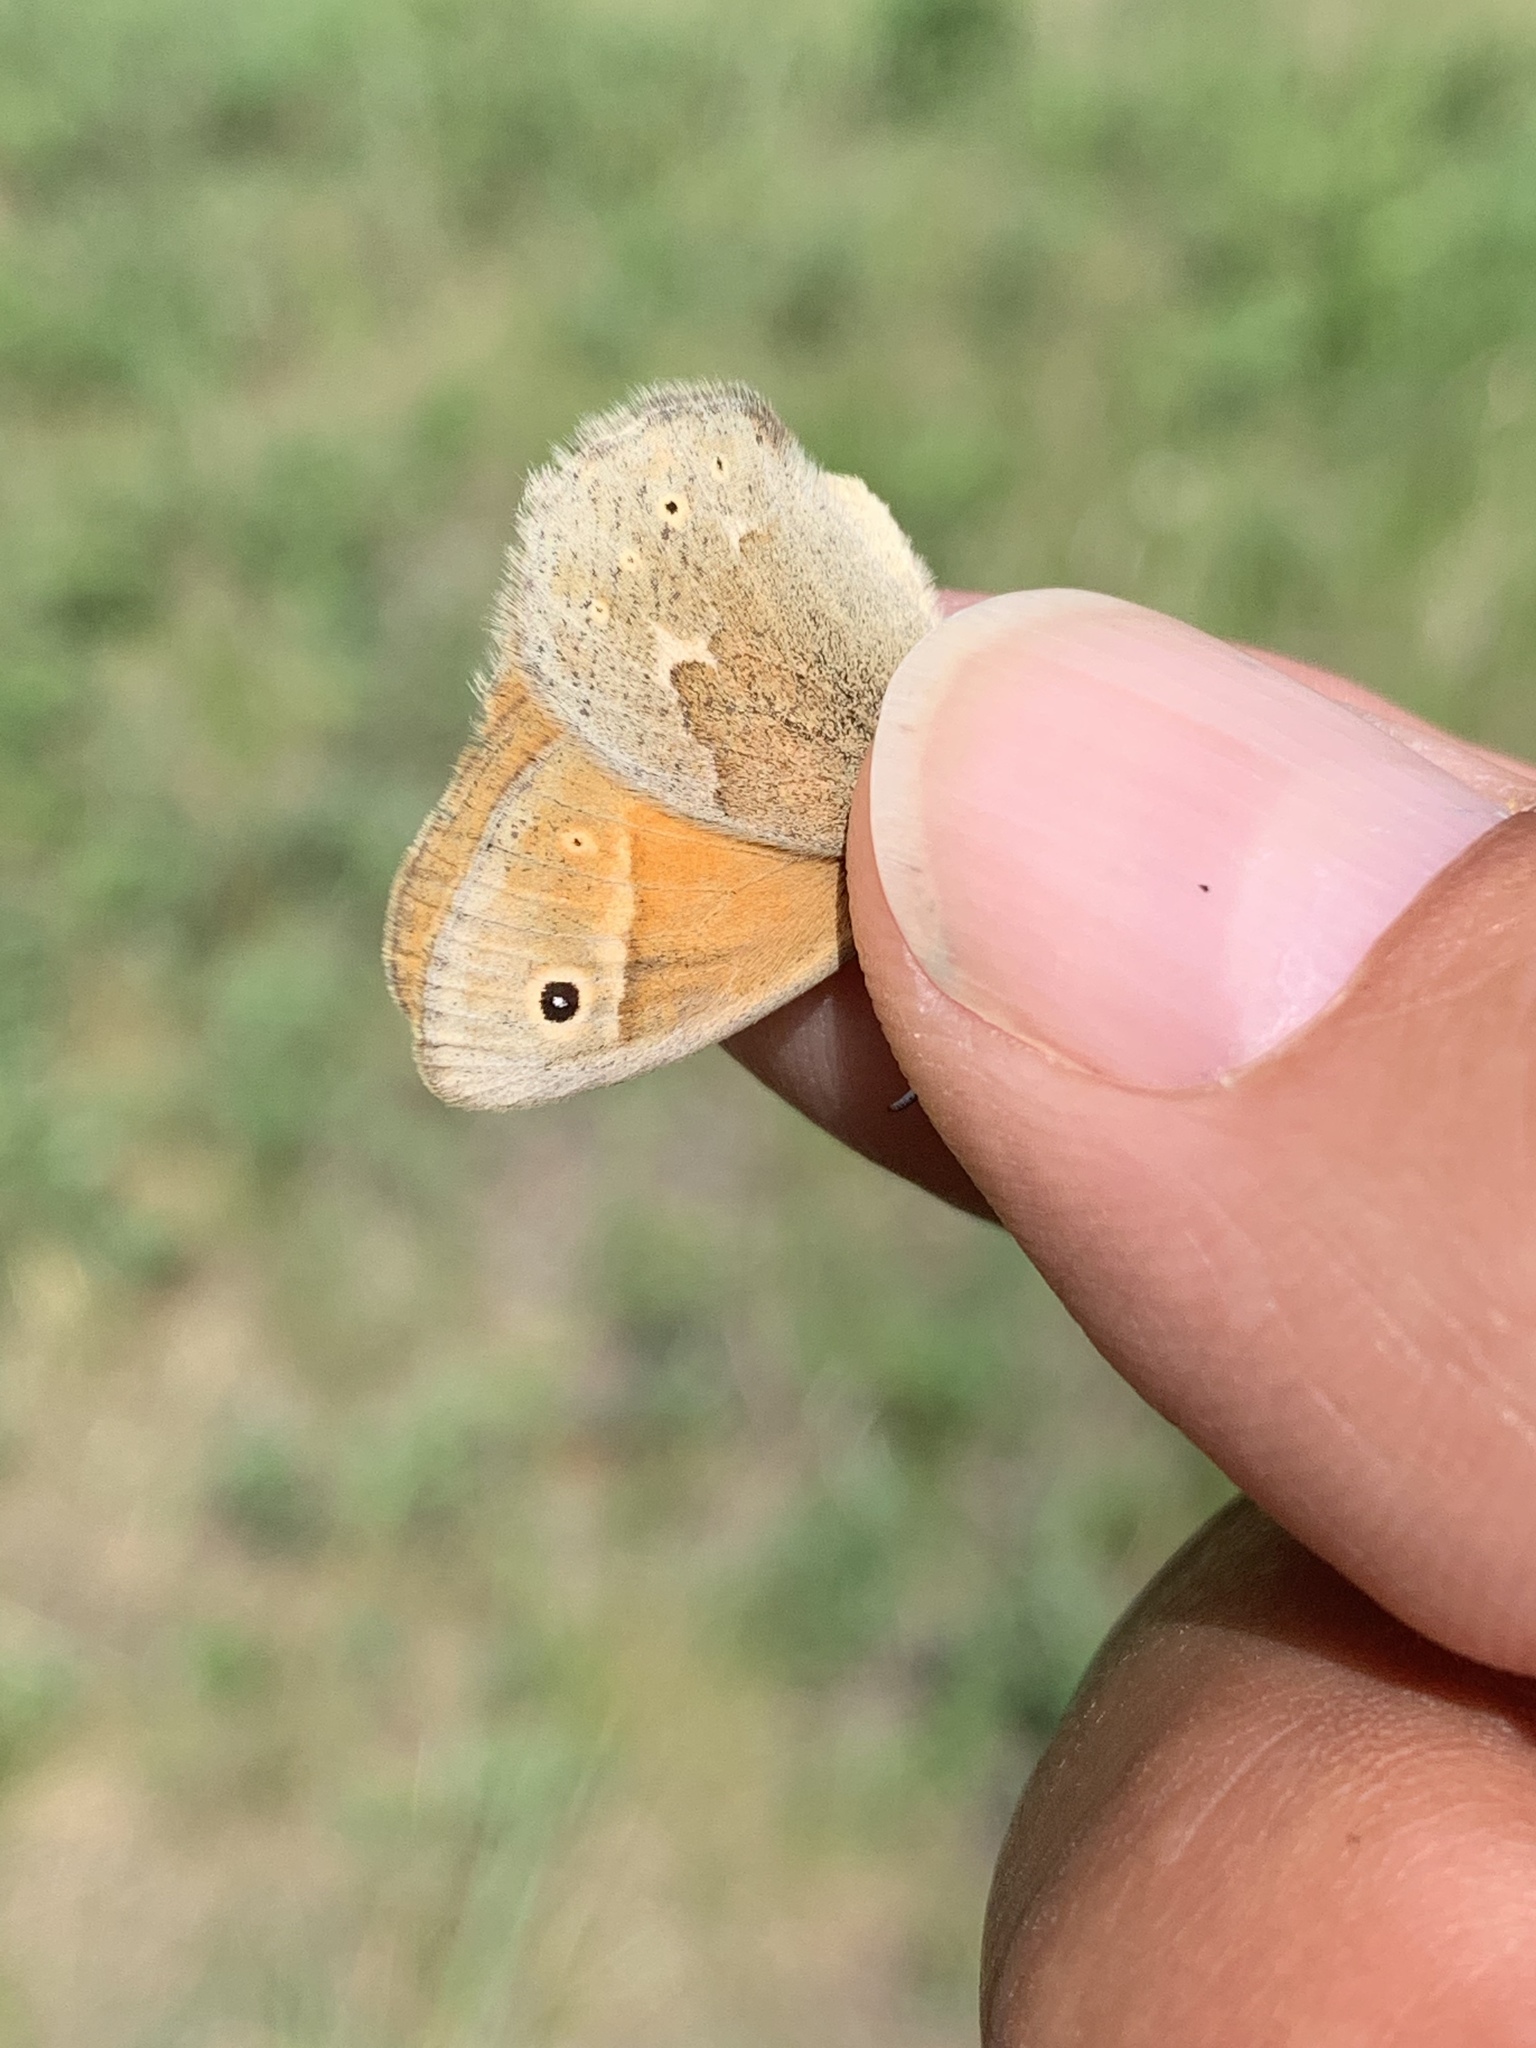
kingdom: Animalia
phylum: Arthropoda
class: Insecta
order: Lepidoptera
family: Nymphalidae
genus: Coenonympha
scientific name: Coenonympha california
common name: Common ringlet
